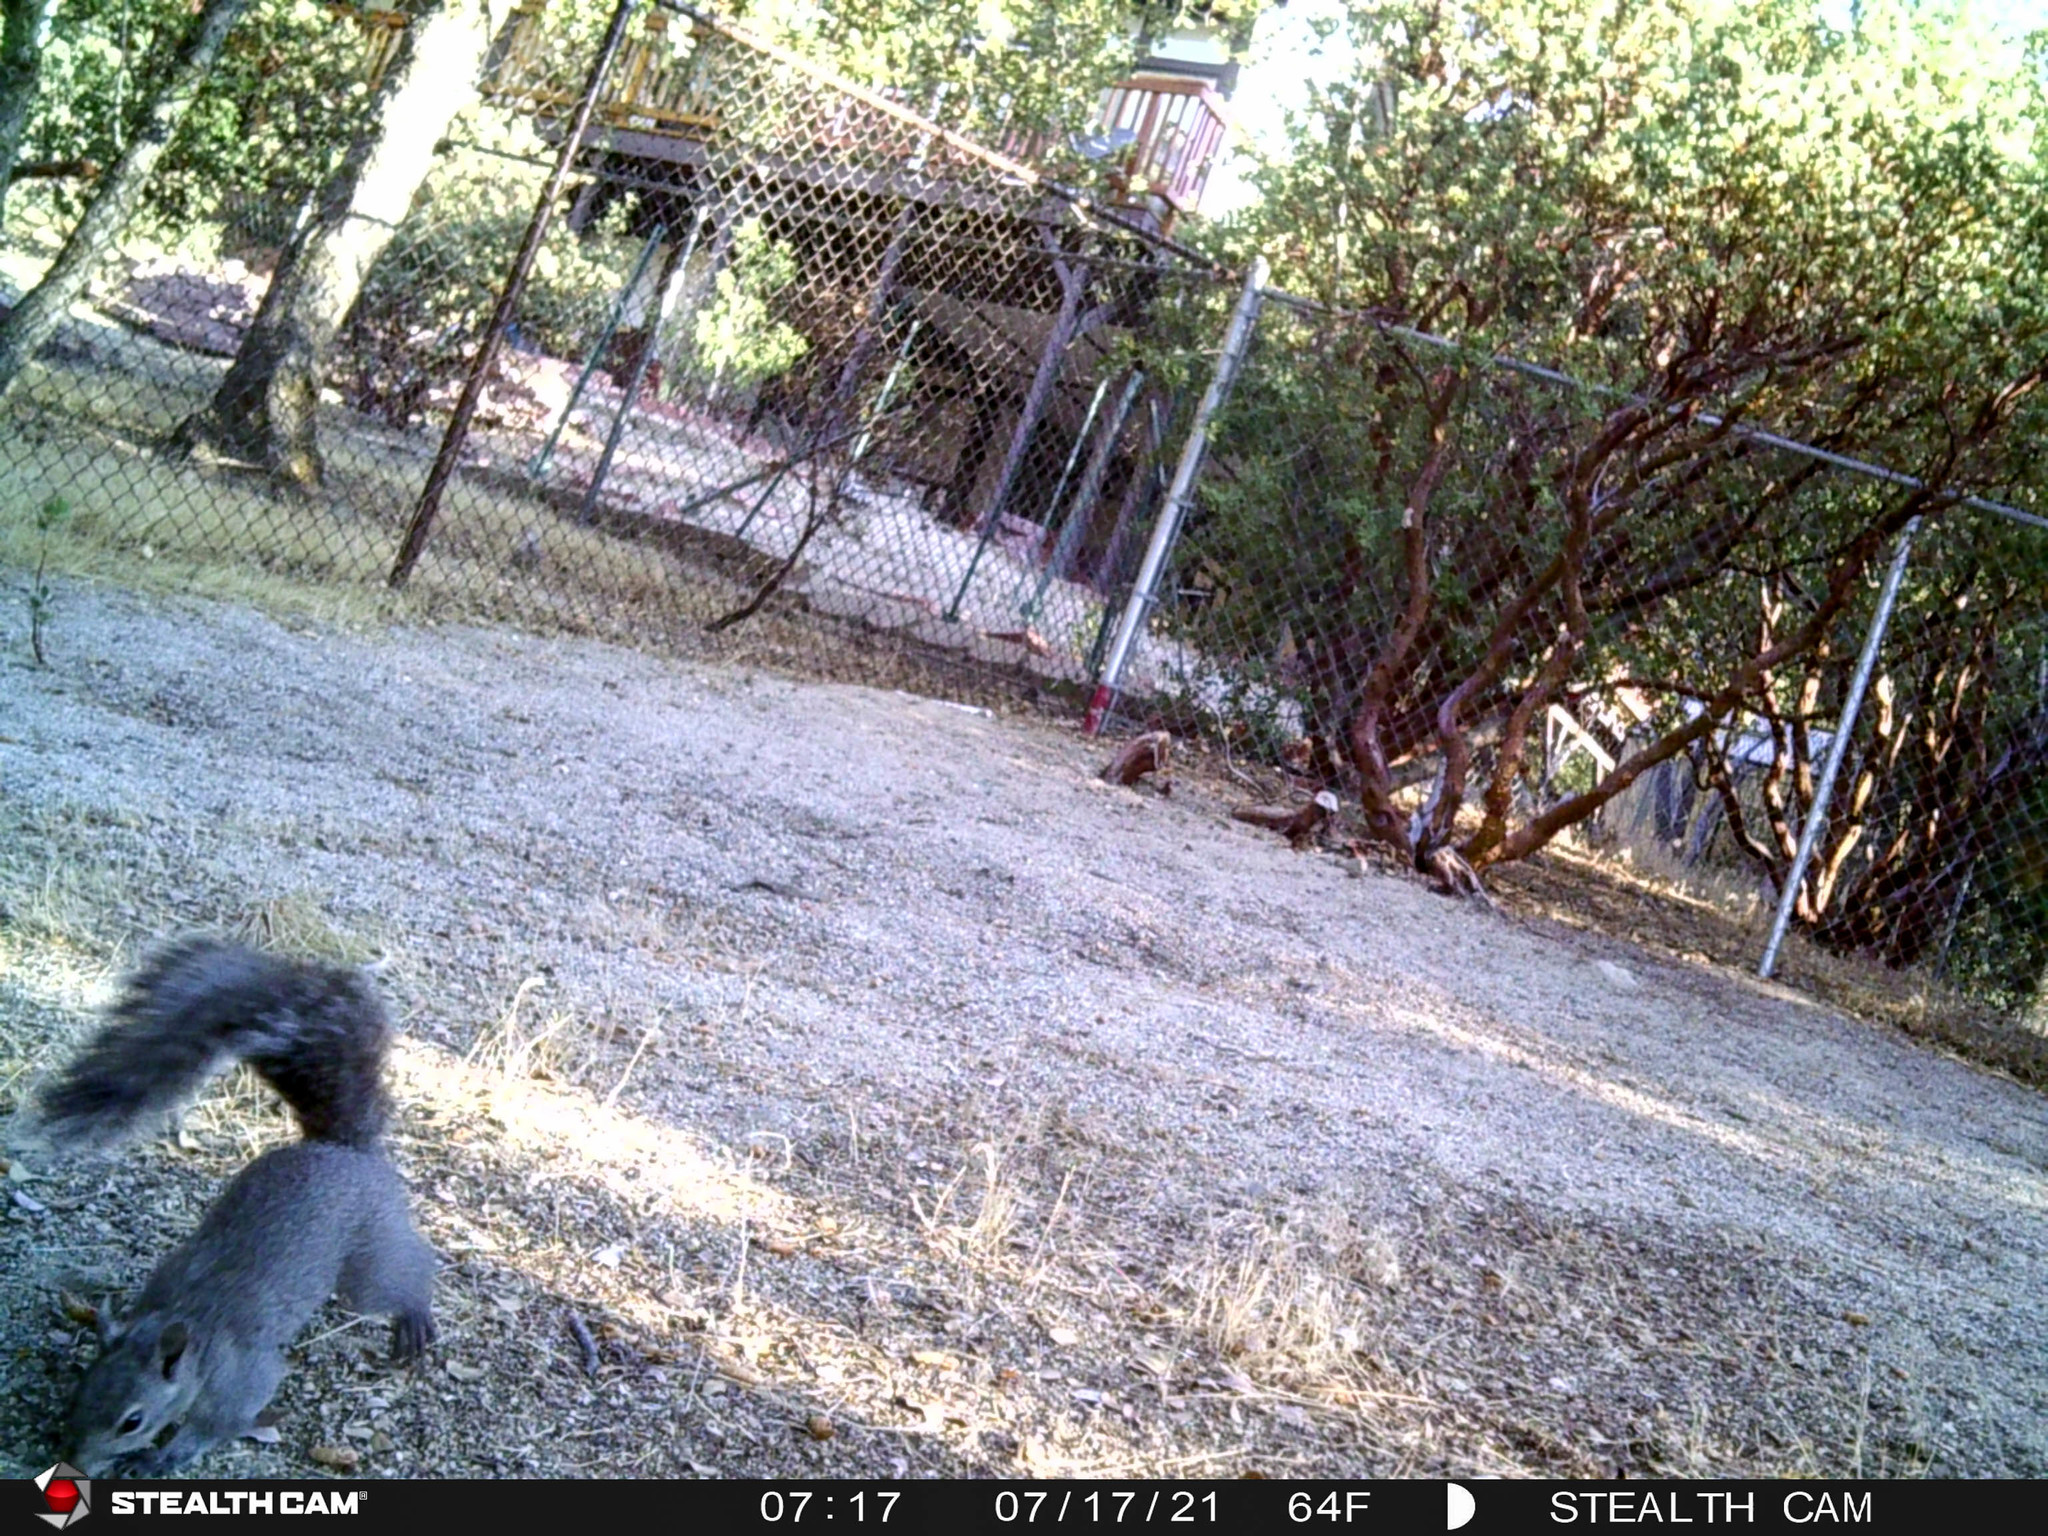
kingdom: Animalia
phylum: Chordata
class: Mammalia
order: Rodentia
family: Sciuridae
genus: Sciurus
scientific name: Sciurus griseus
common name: Western gray squirrel
